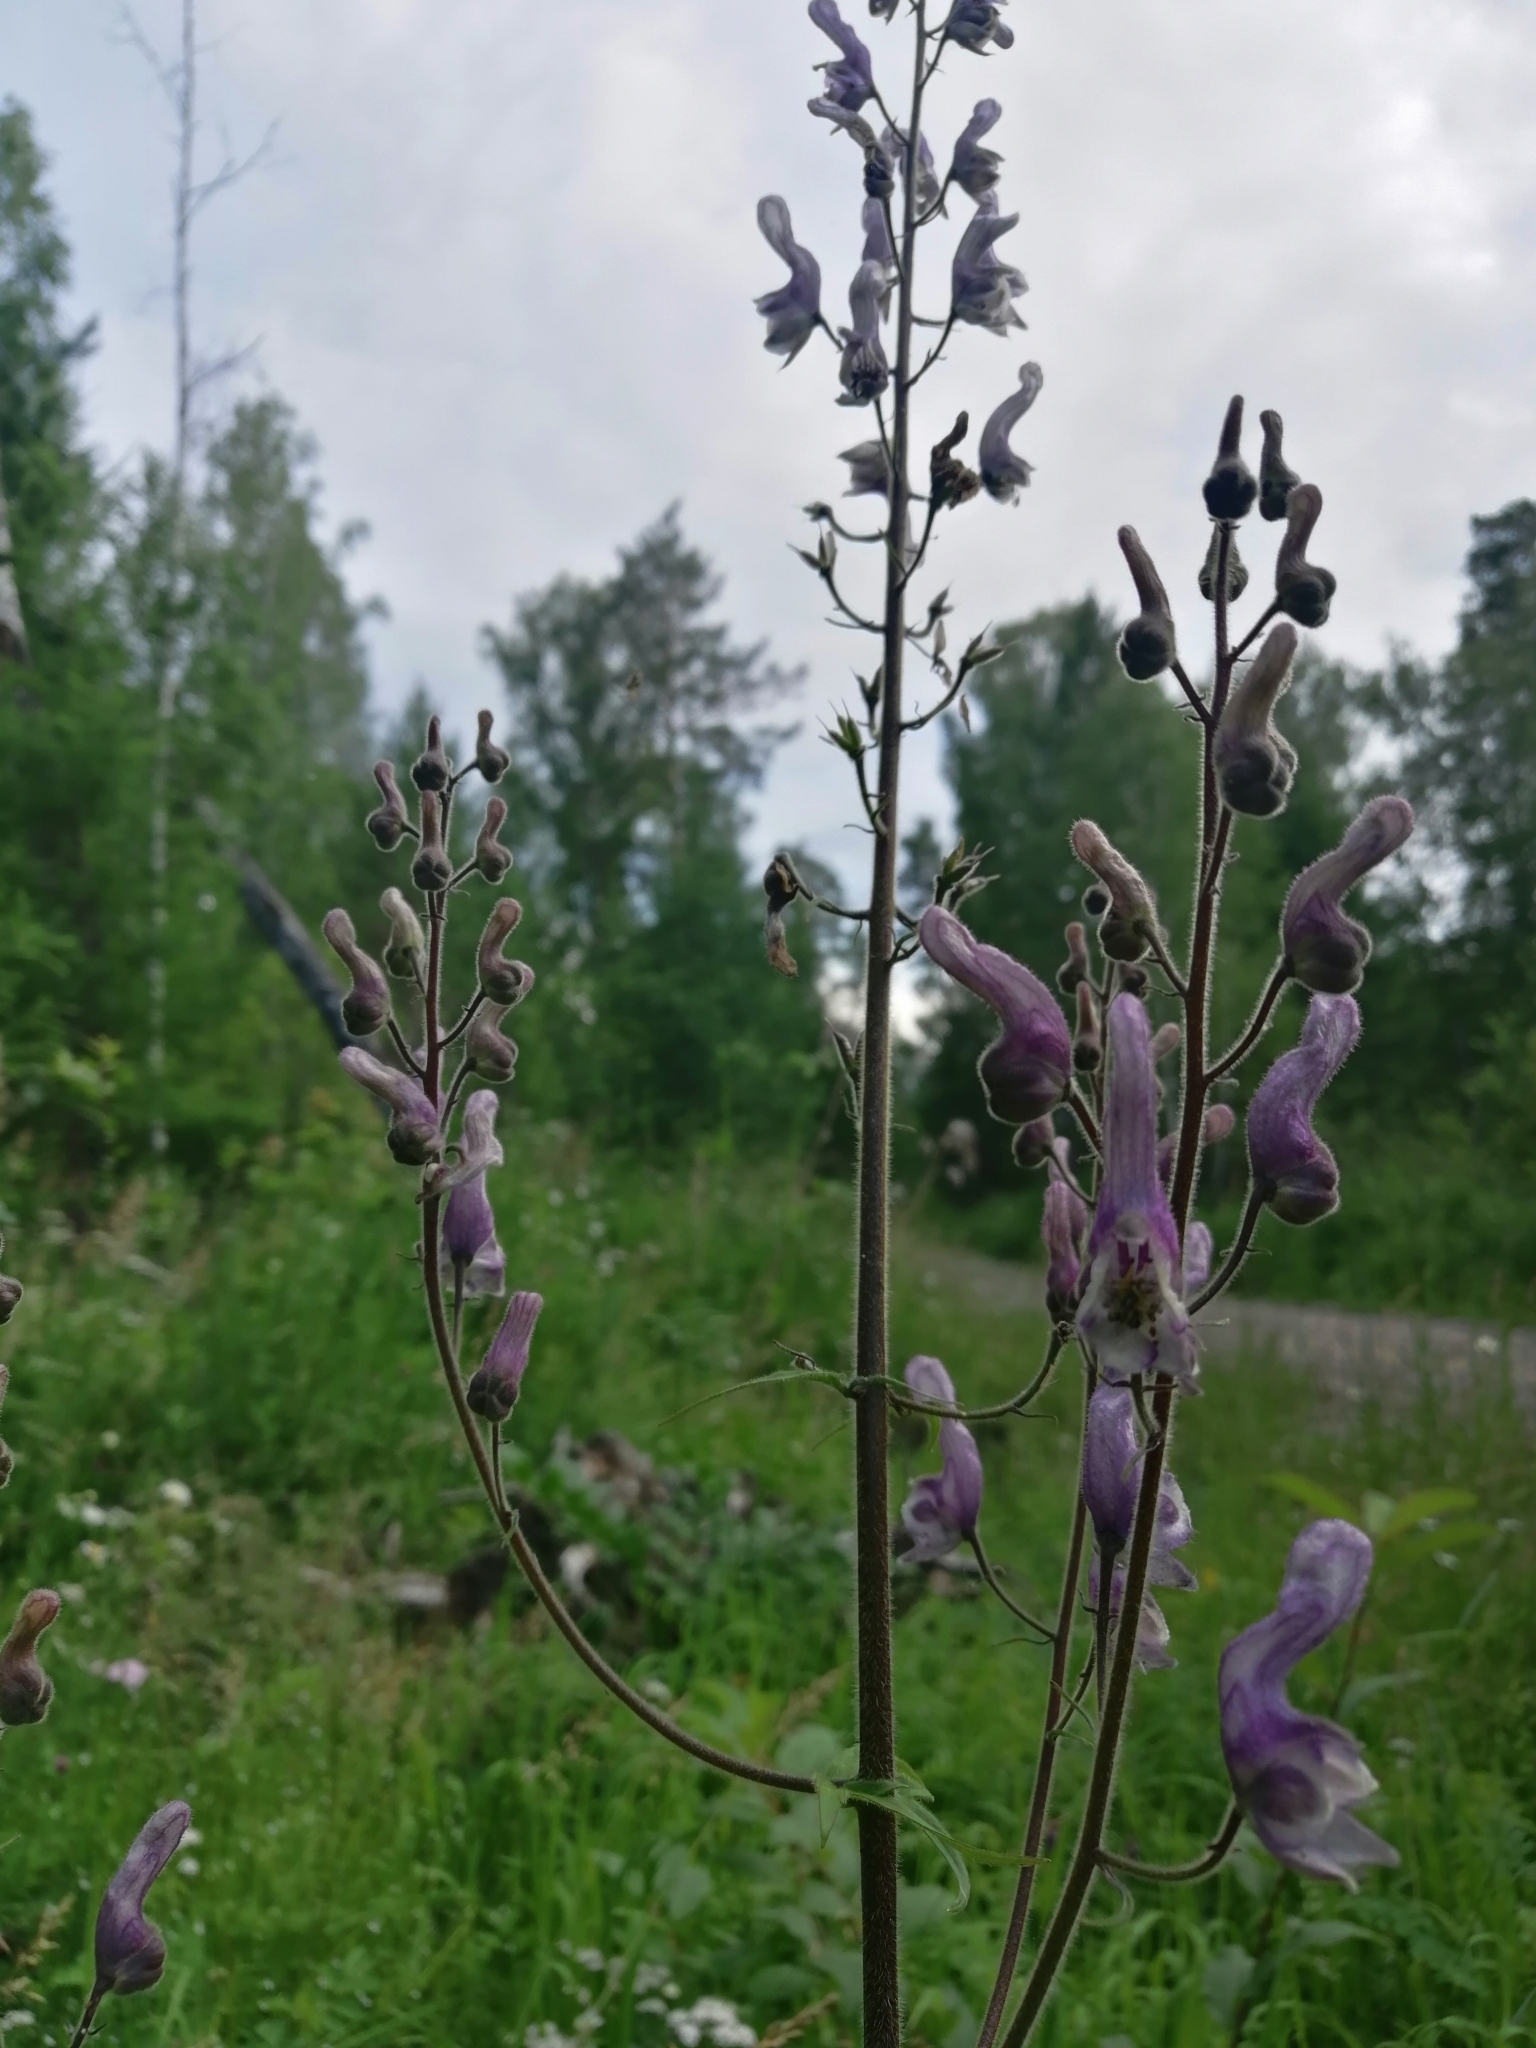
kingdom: Plantae
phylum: Tracheophyta
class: Magnoliopsida
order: Ranunculales
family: Ranunculaceae
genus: Aconitum
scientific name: Aconitum septentrionale
